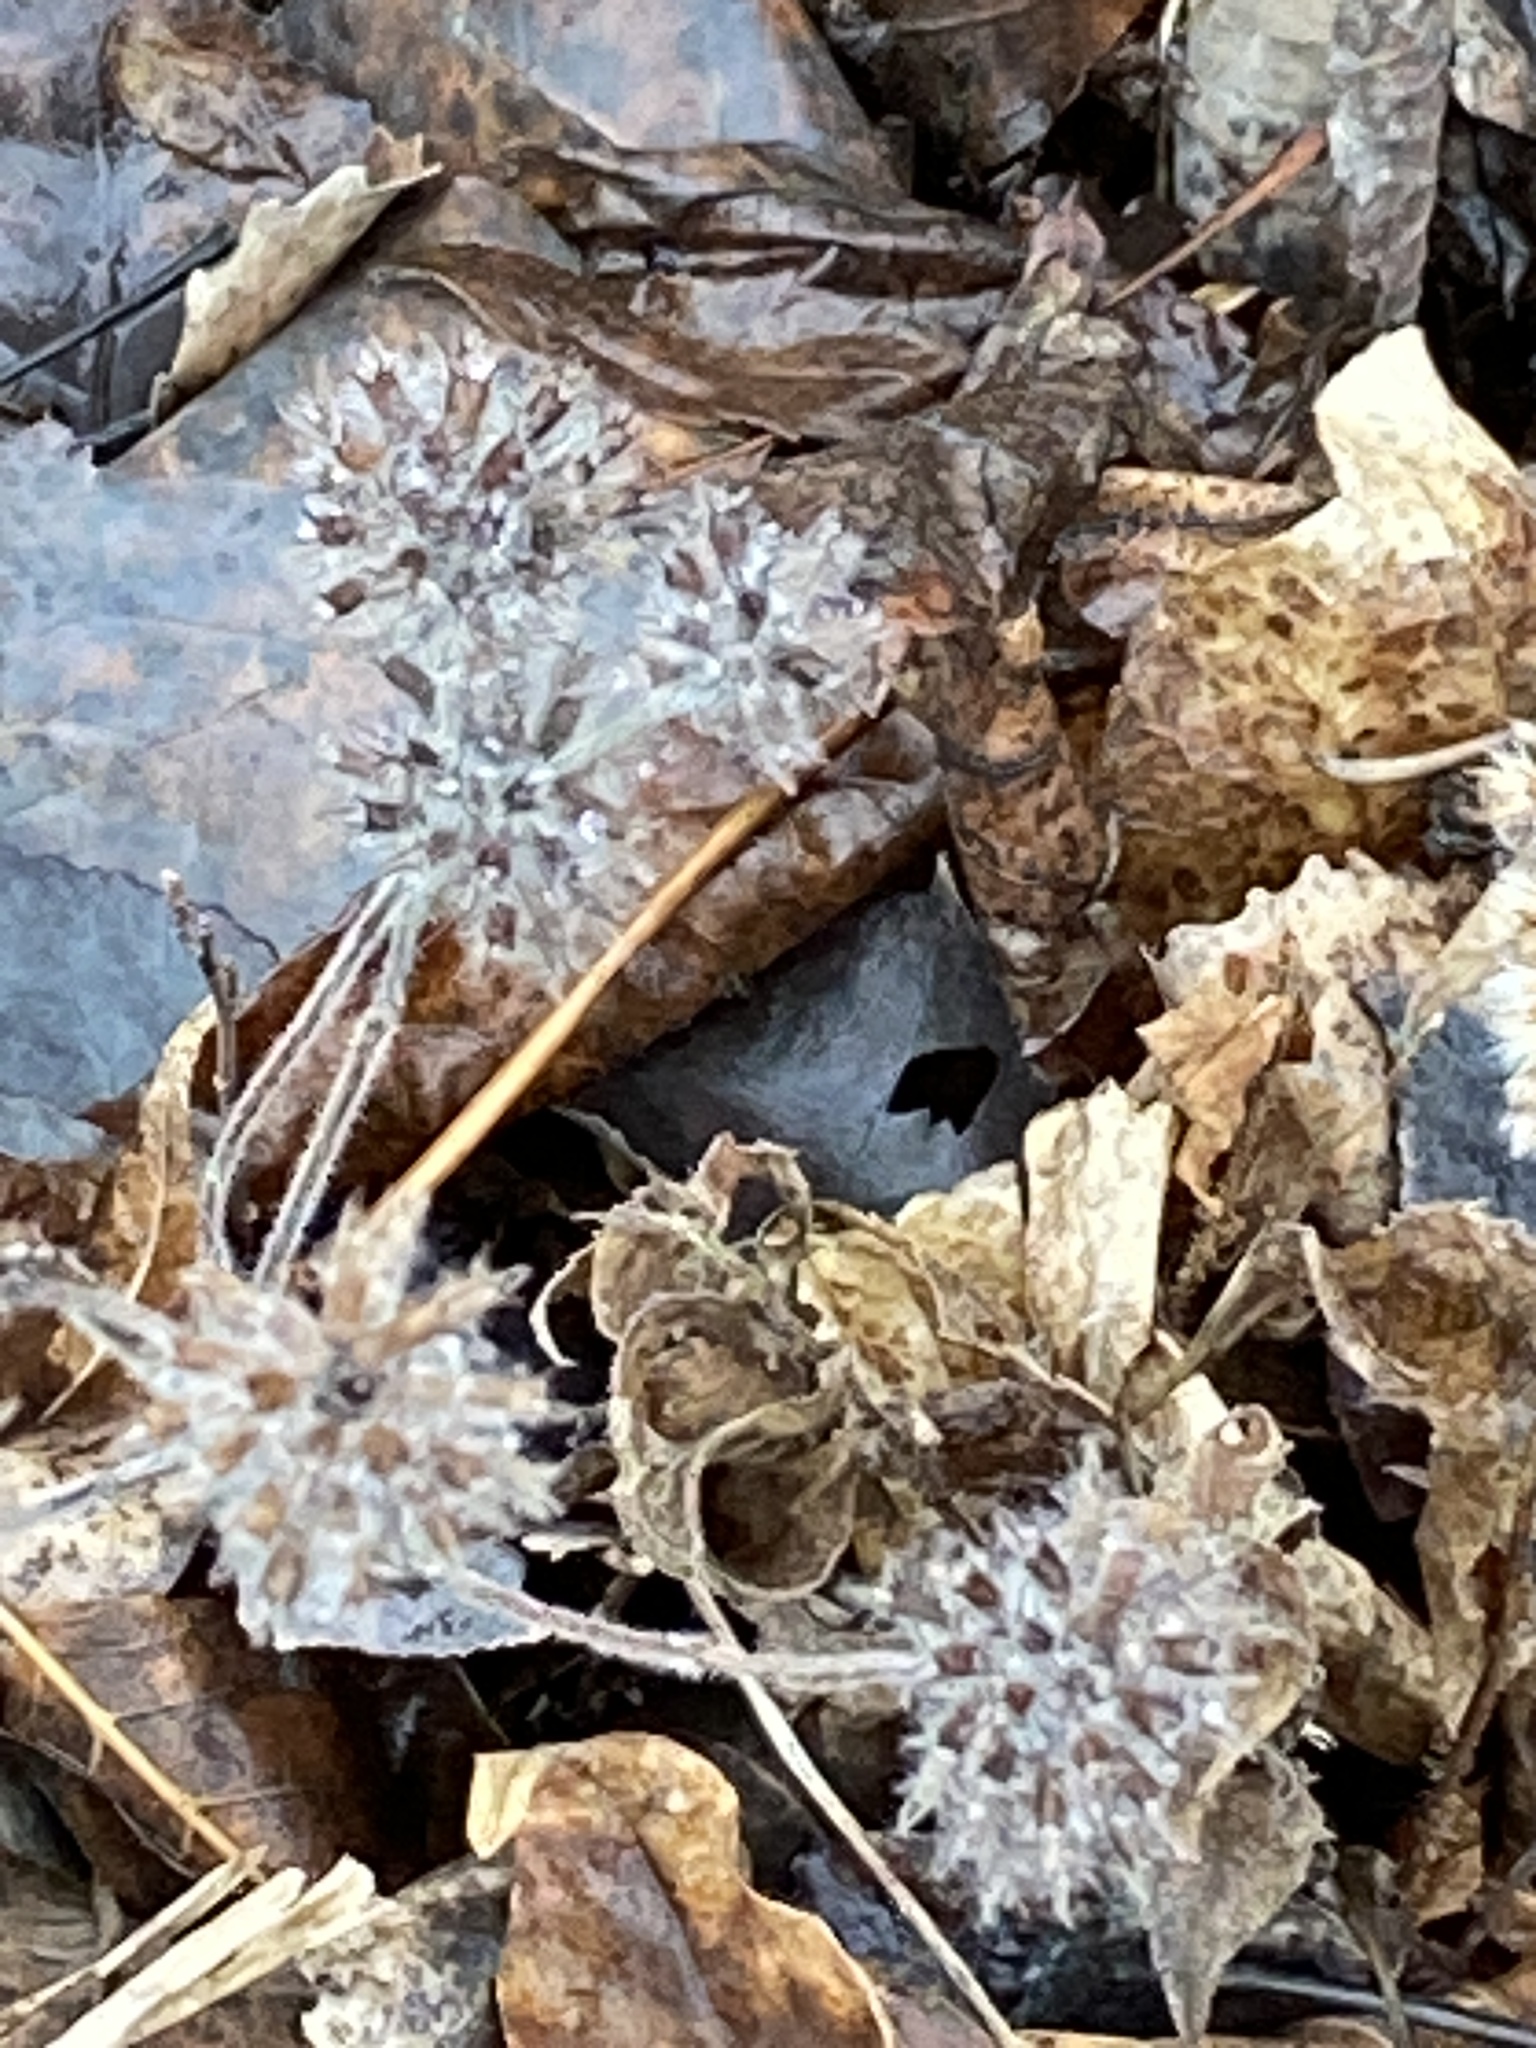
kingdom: Plantae
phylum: Tracheophyta
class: Magnoliopsida
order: Lamiales
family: Lamiaceae
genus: Clinopodium
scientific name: Clinopodium vulgare
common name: Wild basil
